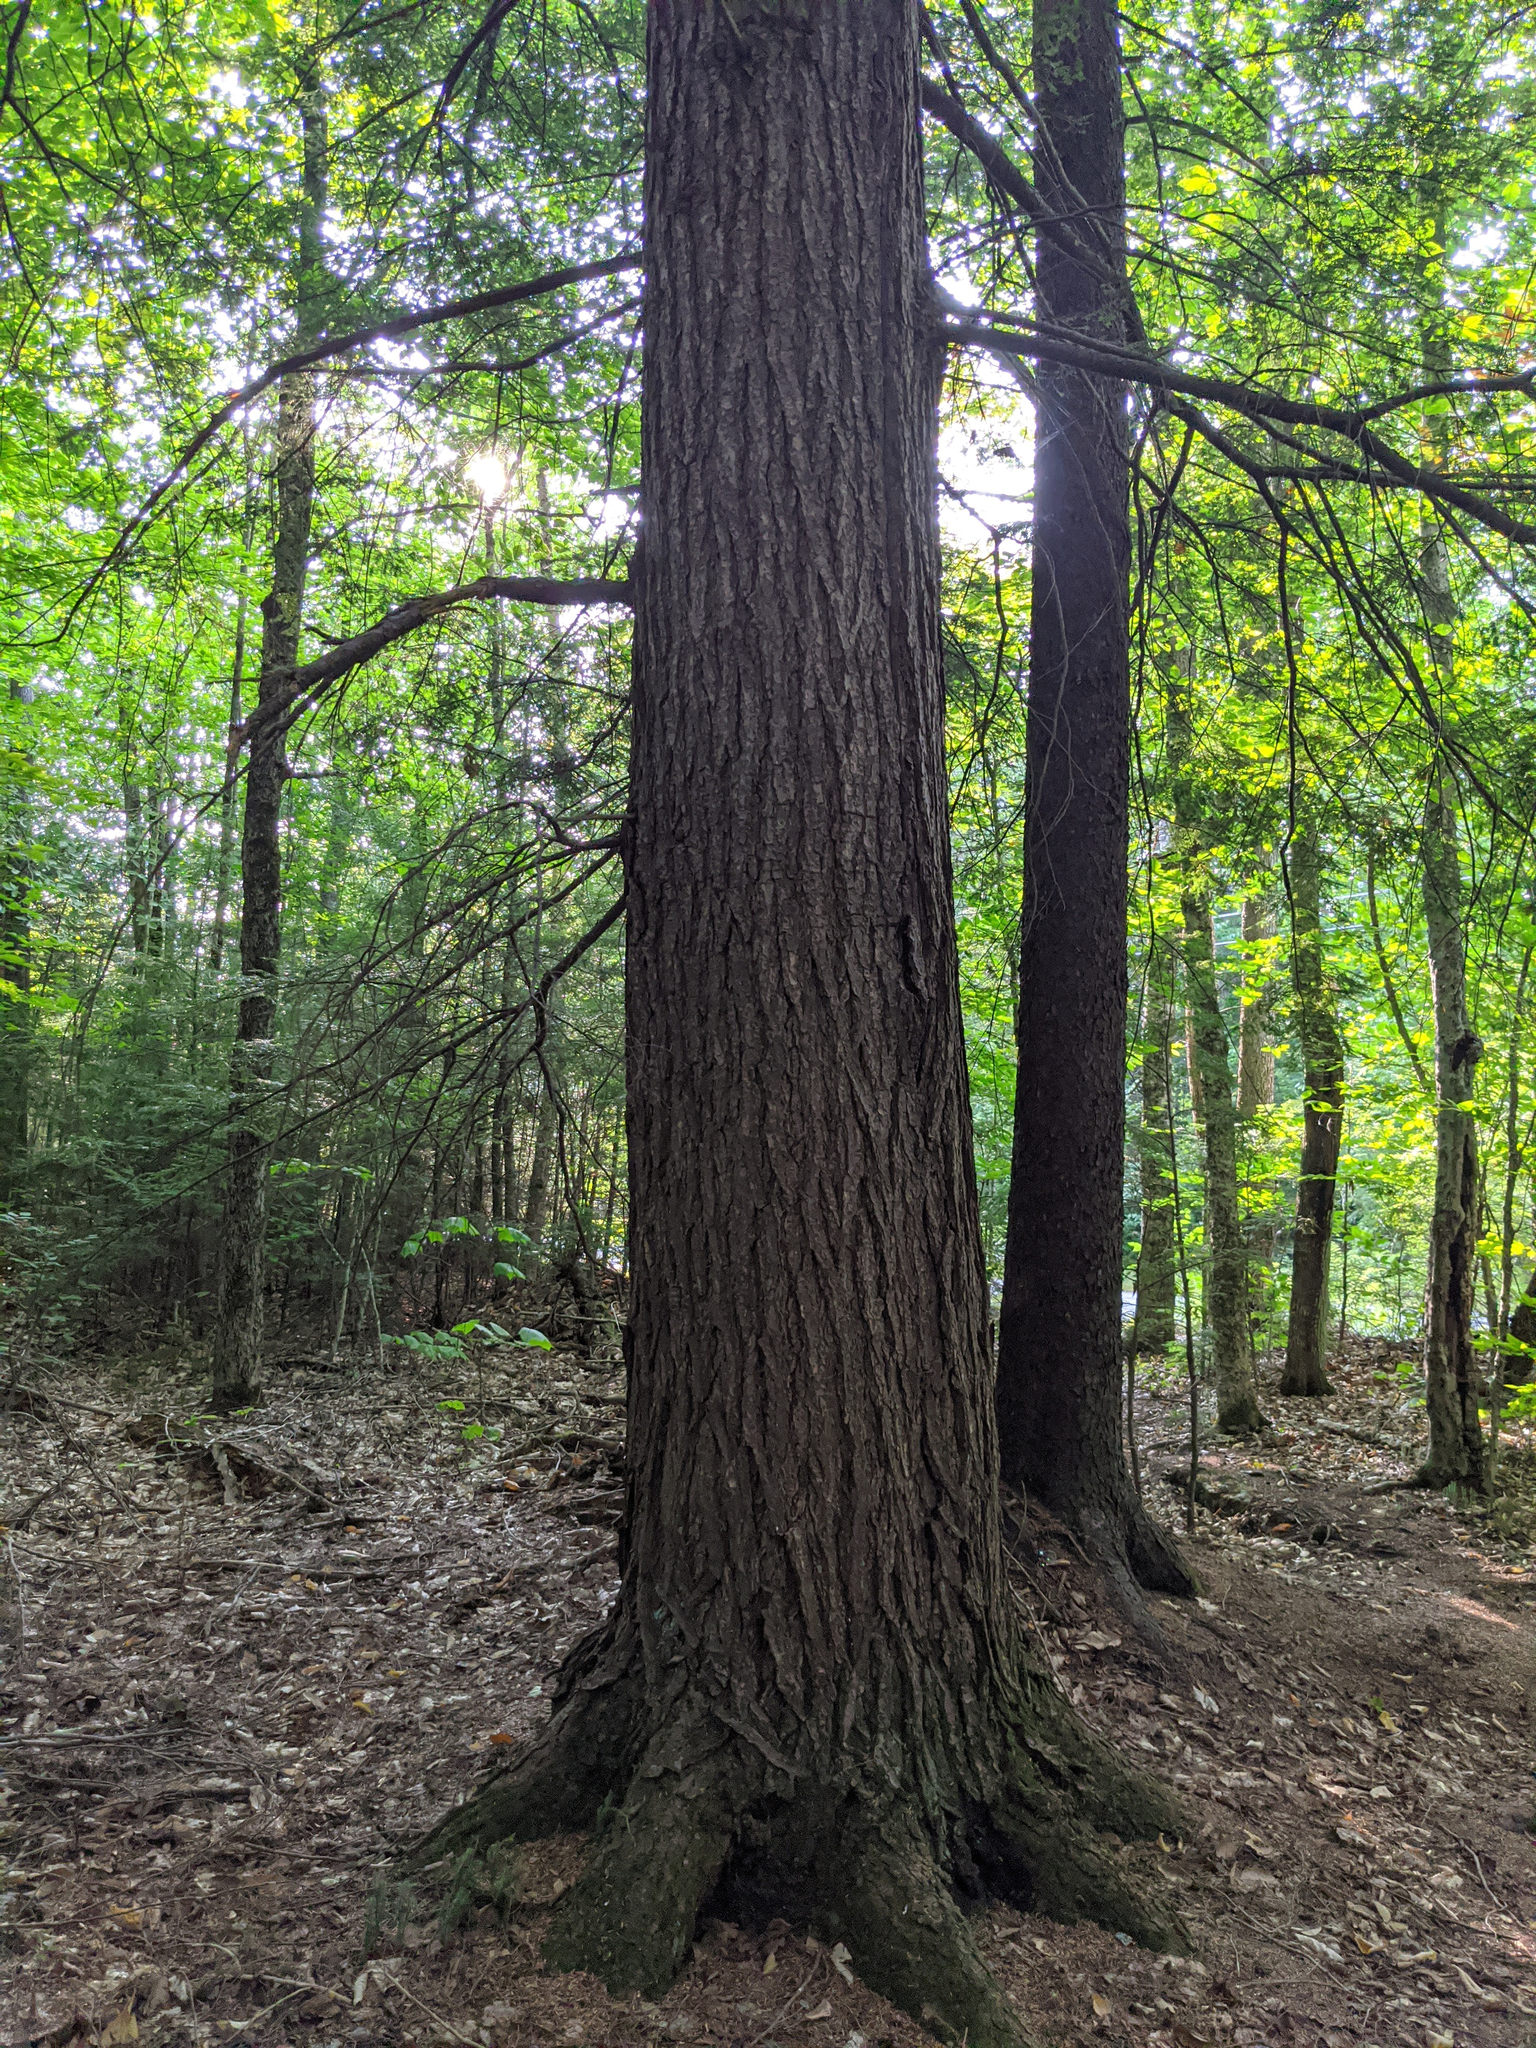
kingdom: Plantae
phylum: Tracheophyta
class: Pinopsida
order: Pinales
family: Pinaceae
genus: Tsuga
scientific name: Tsuga canadensis
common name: Eastern hemlock
